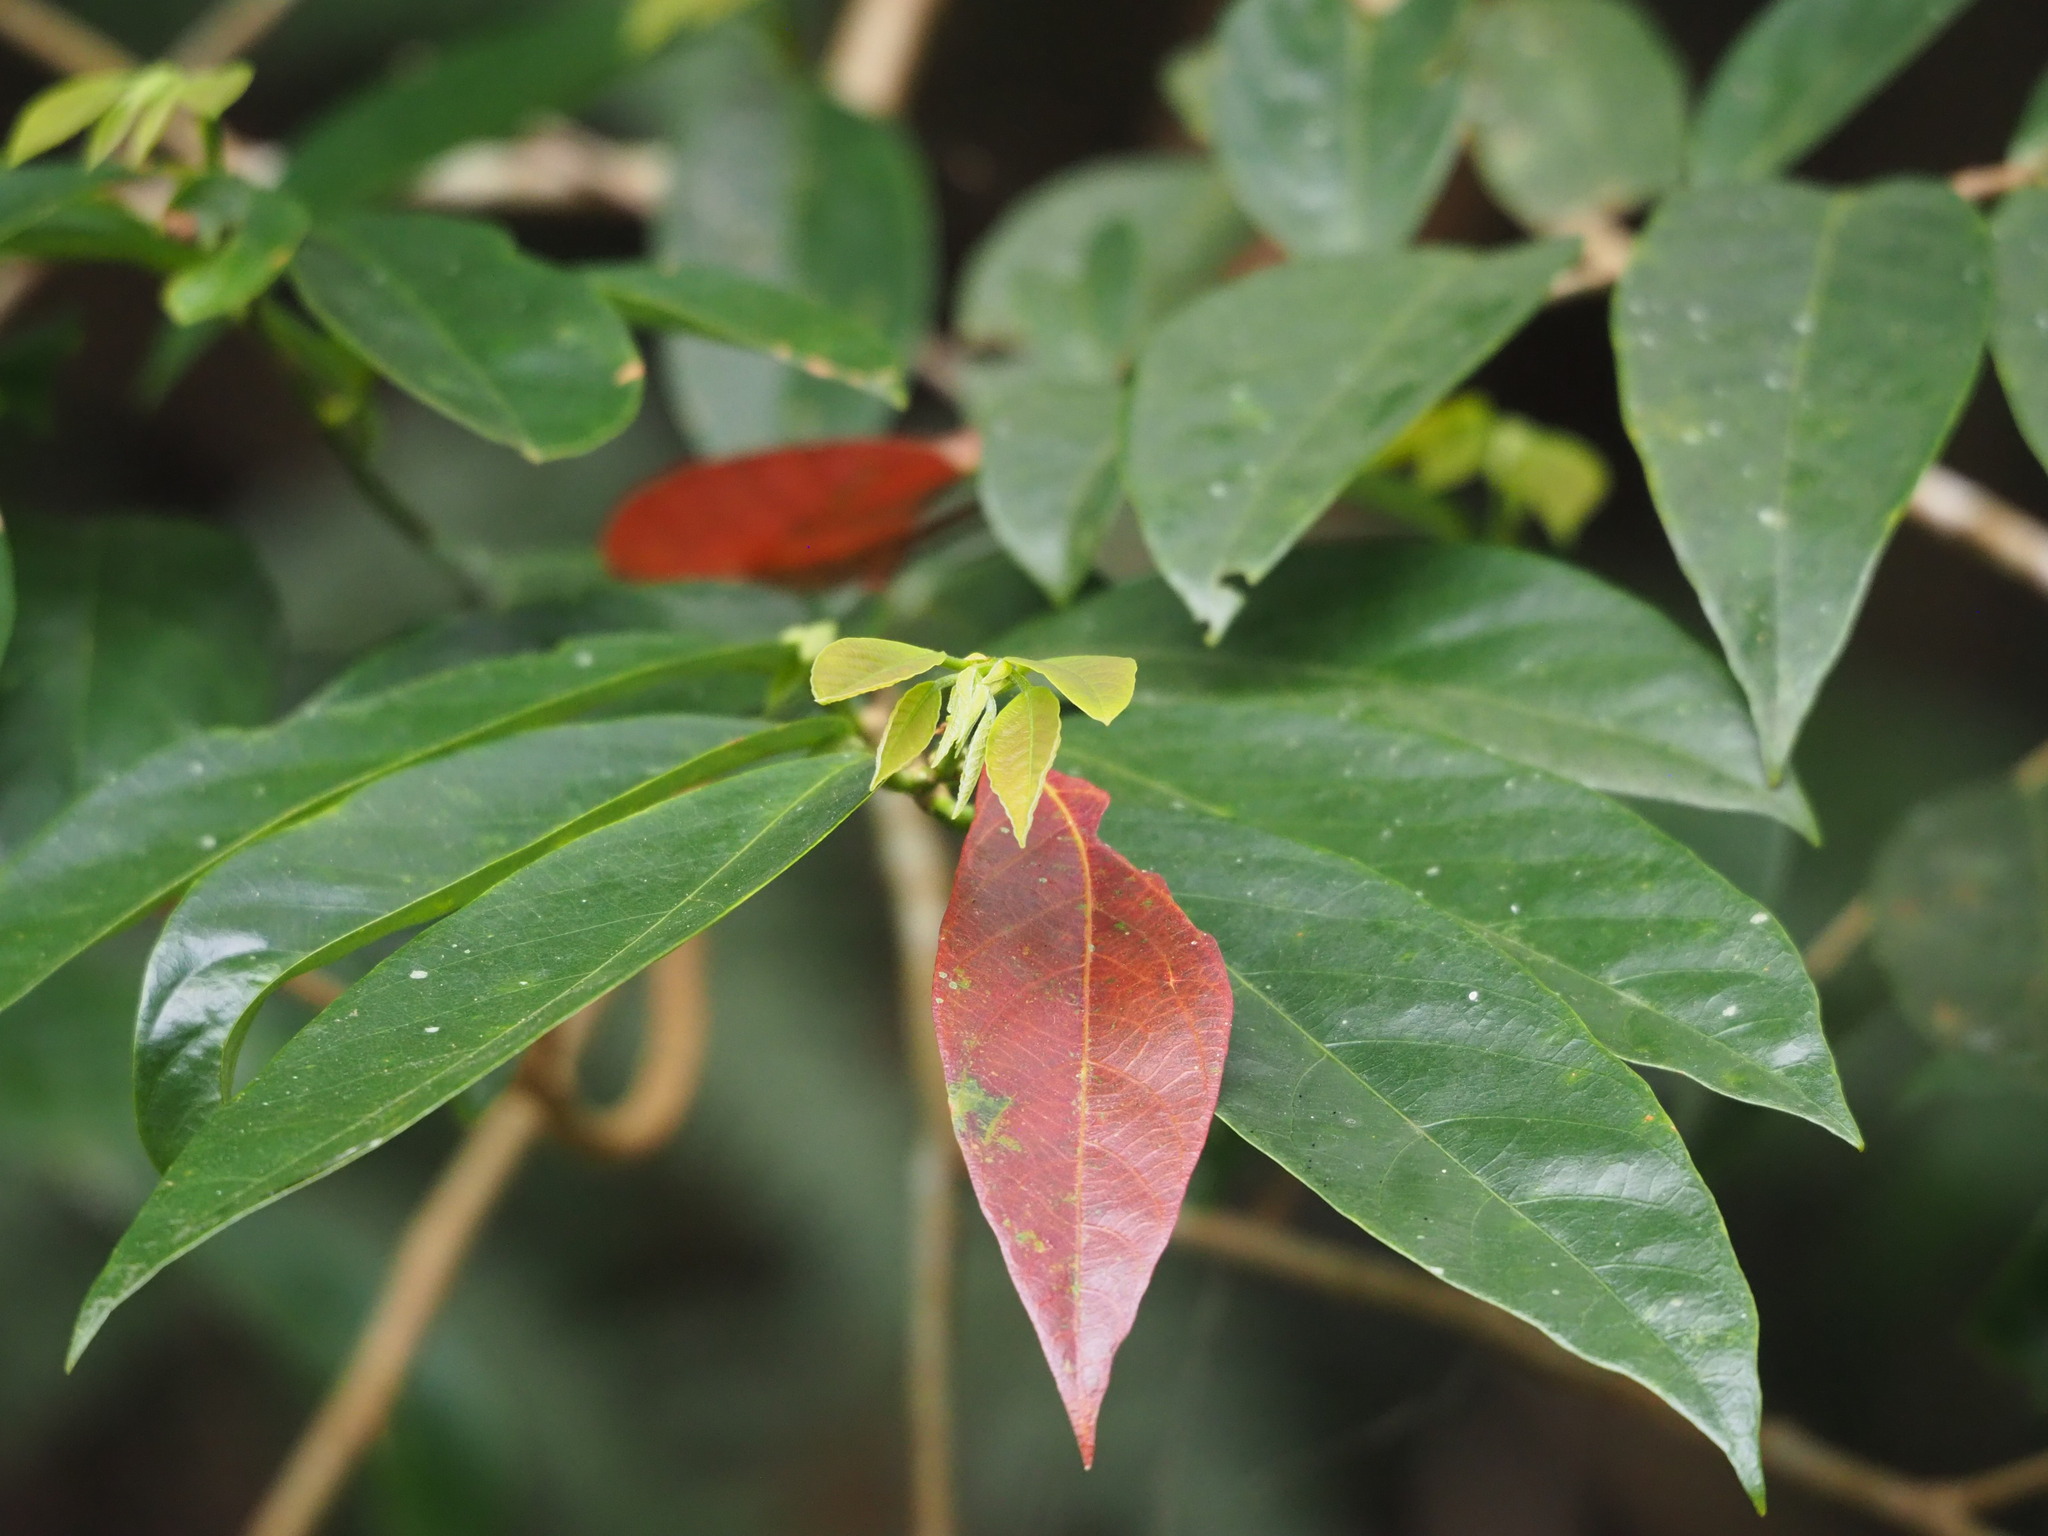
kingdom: Plantae
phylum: Tracheophyta
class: Magnoliopsida
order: Malpighiales
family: Phyllanthaceae
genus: Bridelia
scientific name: Bridelia balansae
